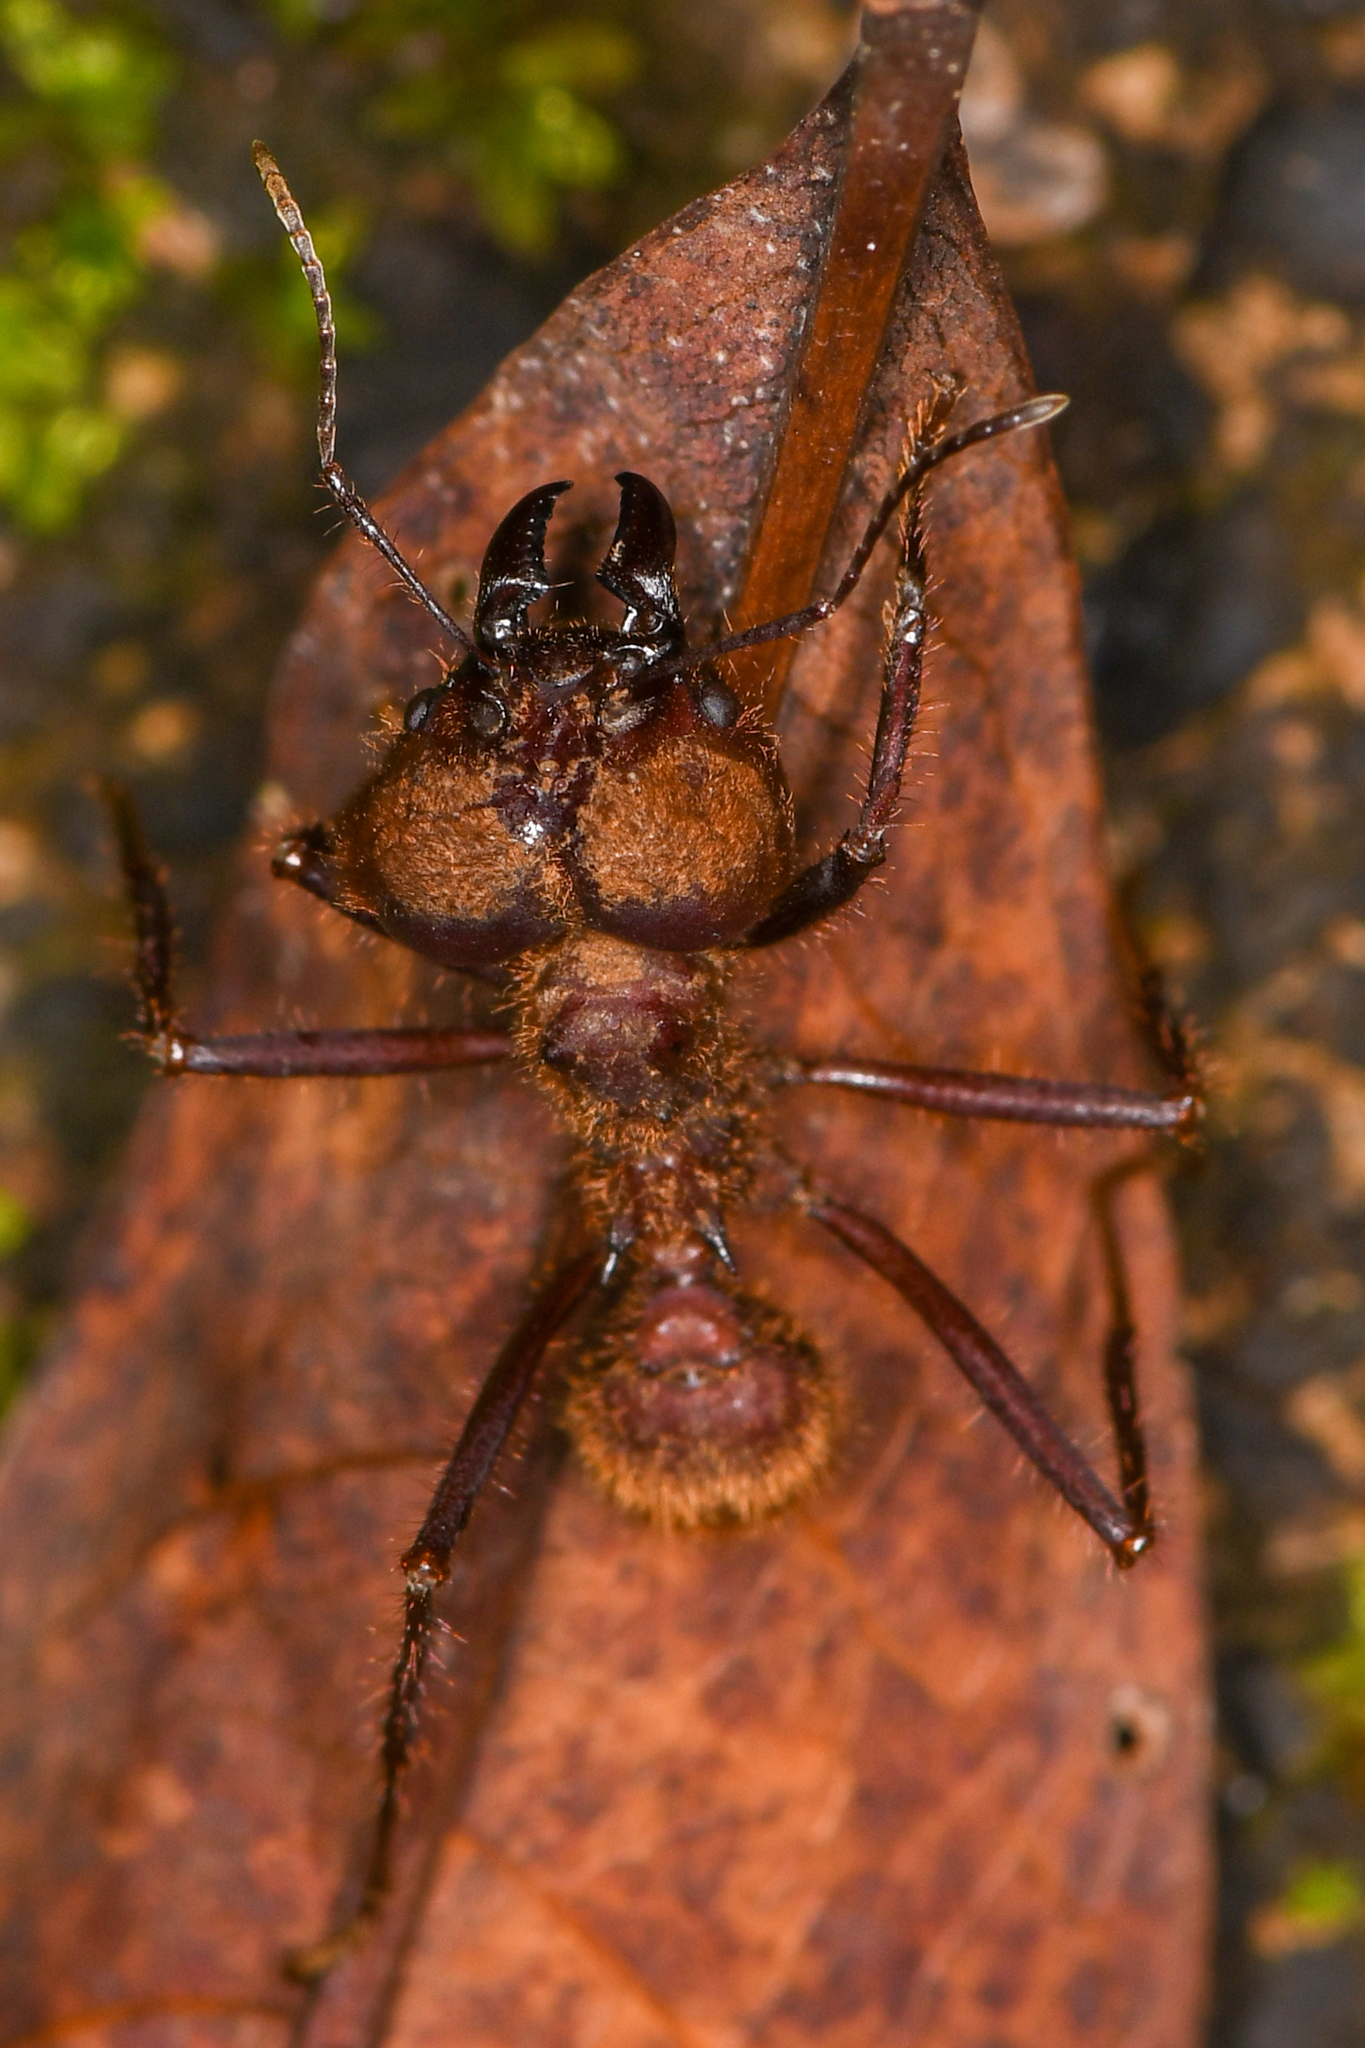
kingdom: Animalia
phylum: Arthropoda
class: Insecta
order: Hymenoptera
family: Formicidae
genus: Atta
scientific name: Atta cephalotes
